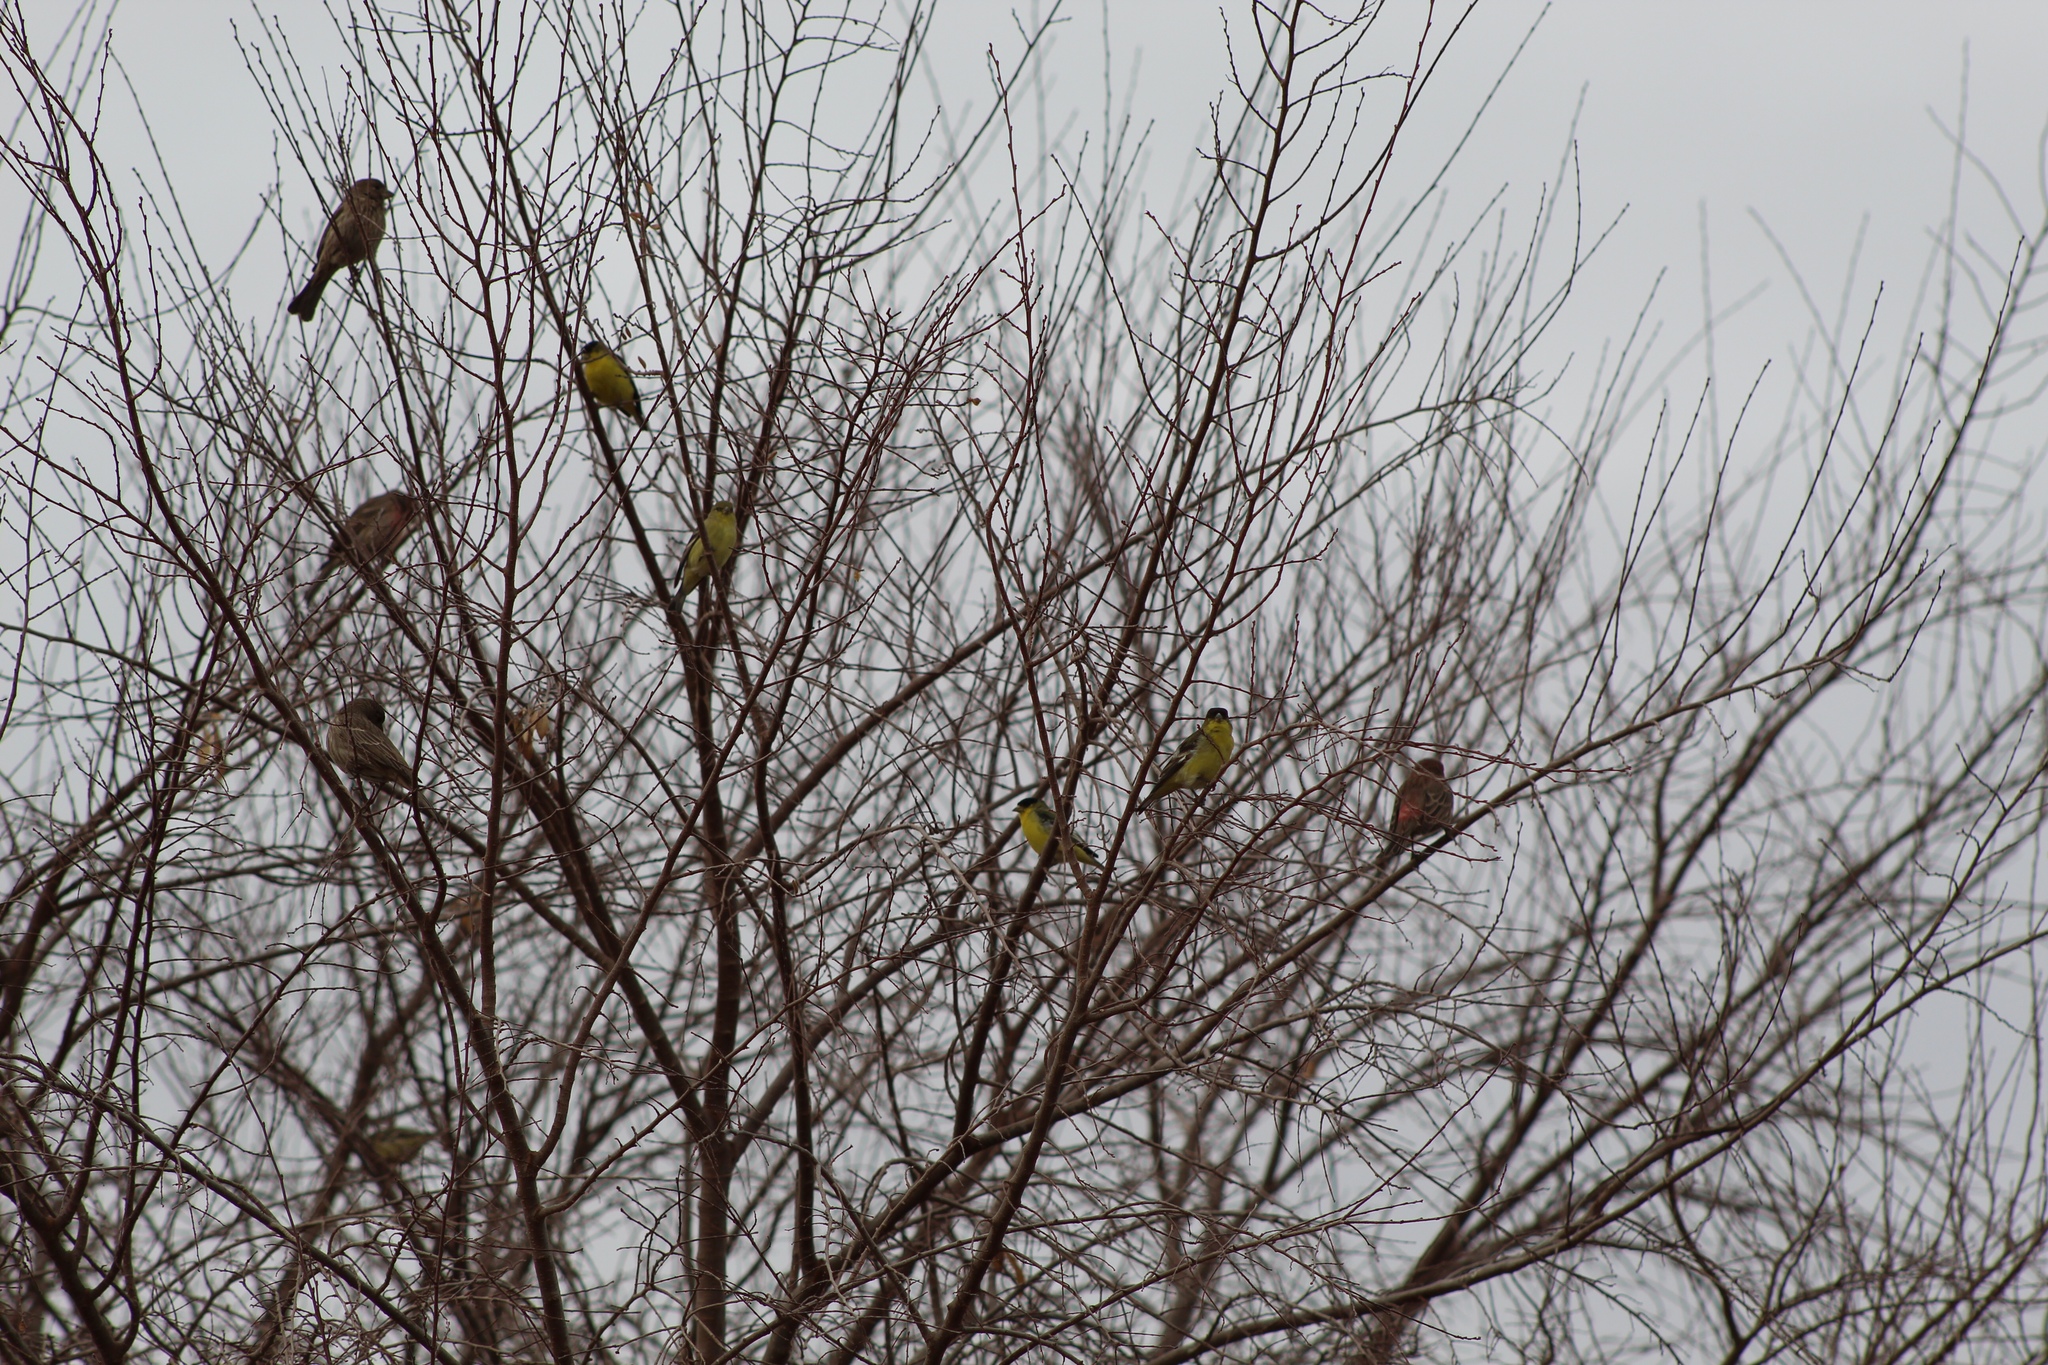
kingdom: Animalia
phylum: Chordata
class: Aves
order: Passeriformes
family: Fringillidae
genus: Spinus
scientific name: Spinus psaltria
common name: Lesser goldfinch
